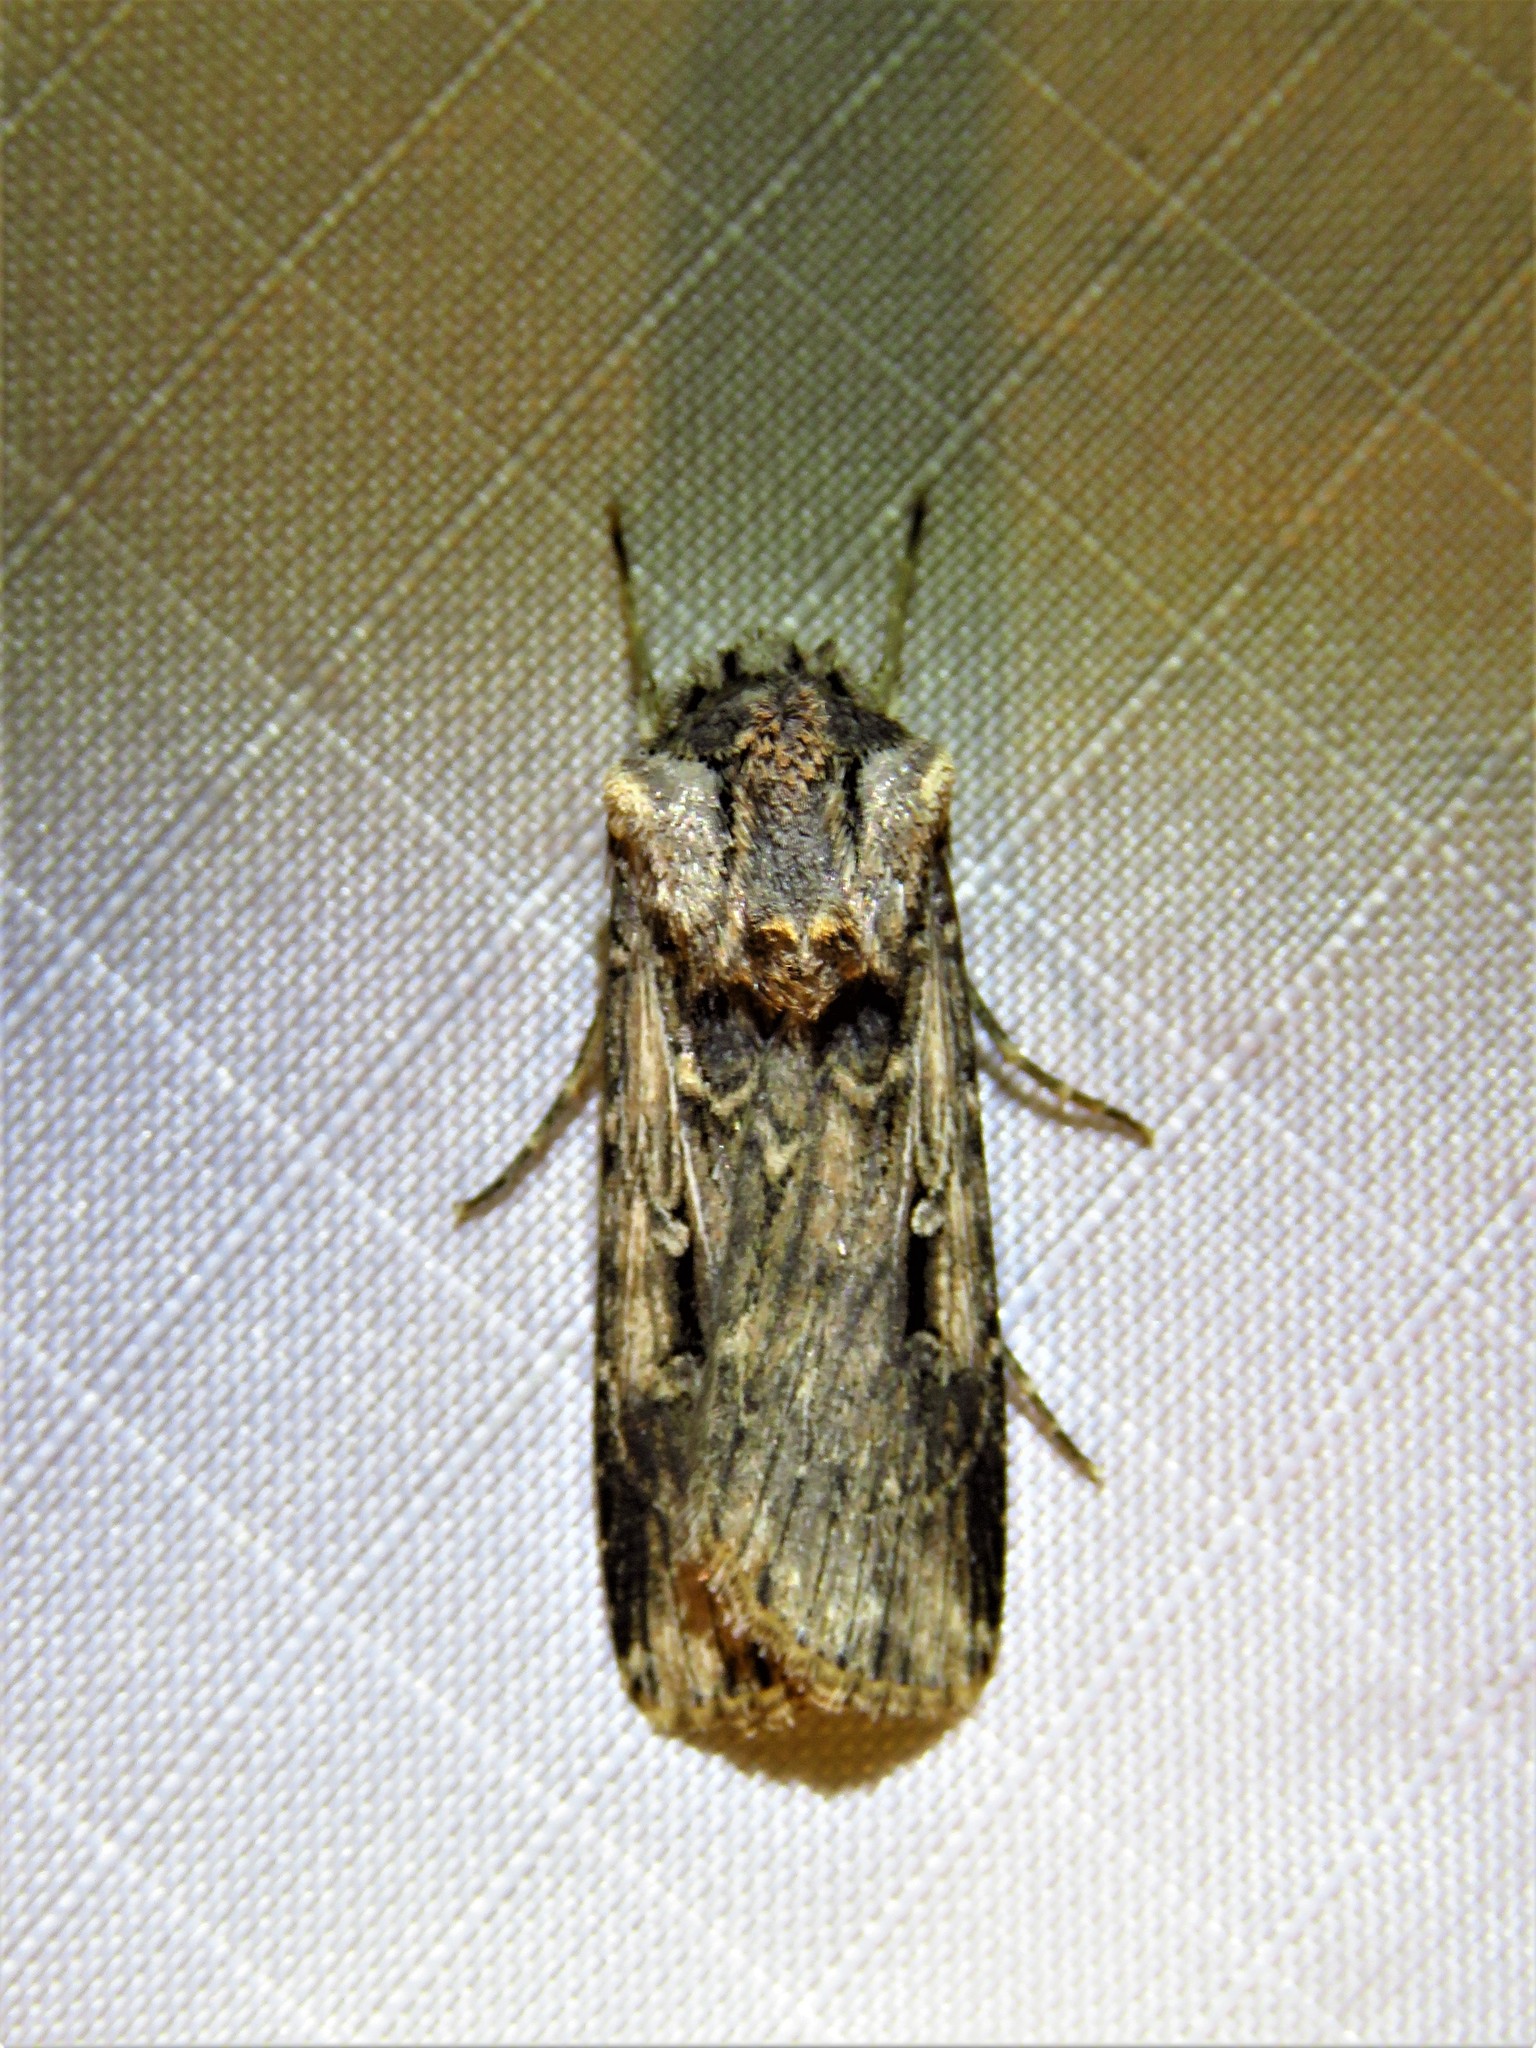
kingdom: Animalia
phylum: Arthropoda
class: Insecta
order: Lepidoptera
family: Noctuidae
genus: Feltia
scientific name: Feltia subterranea
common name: Granulate cutworm
